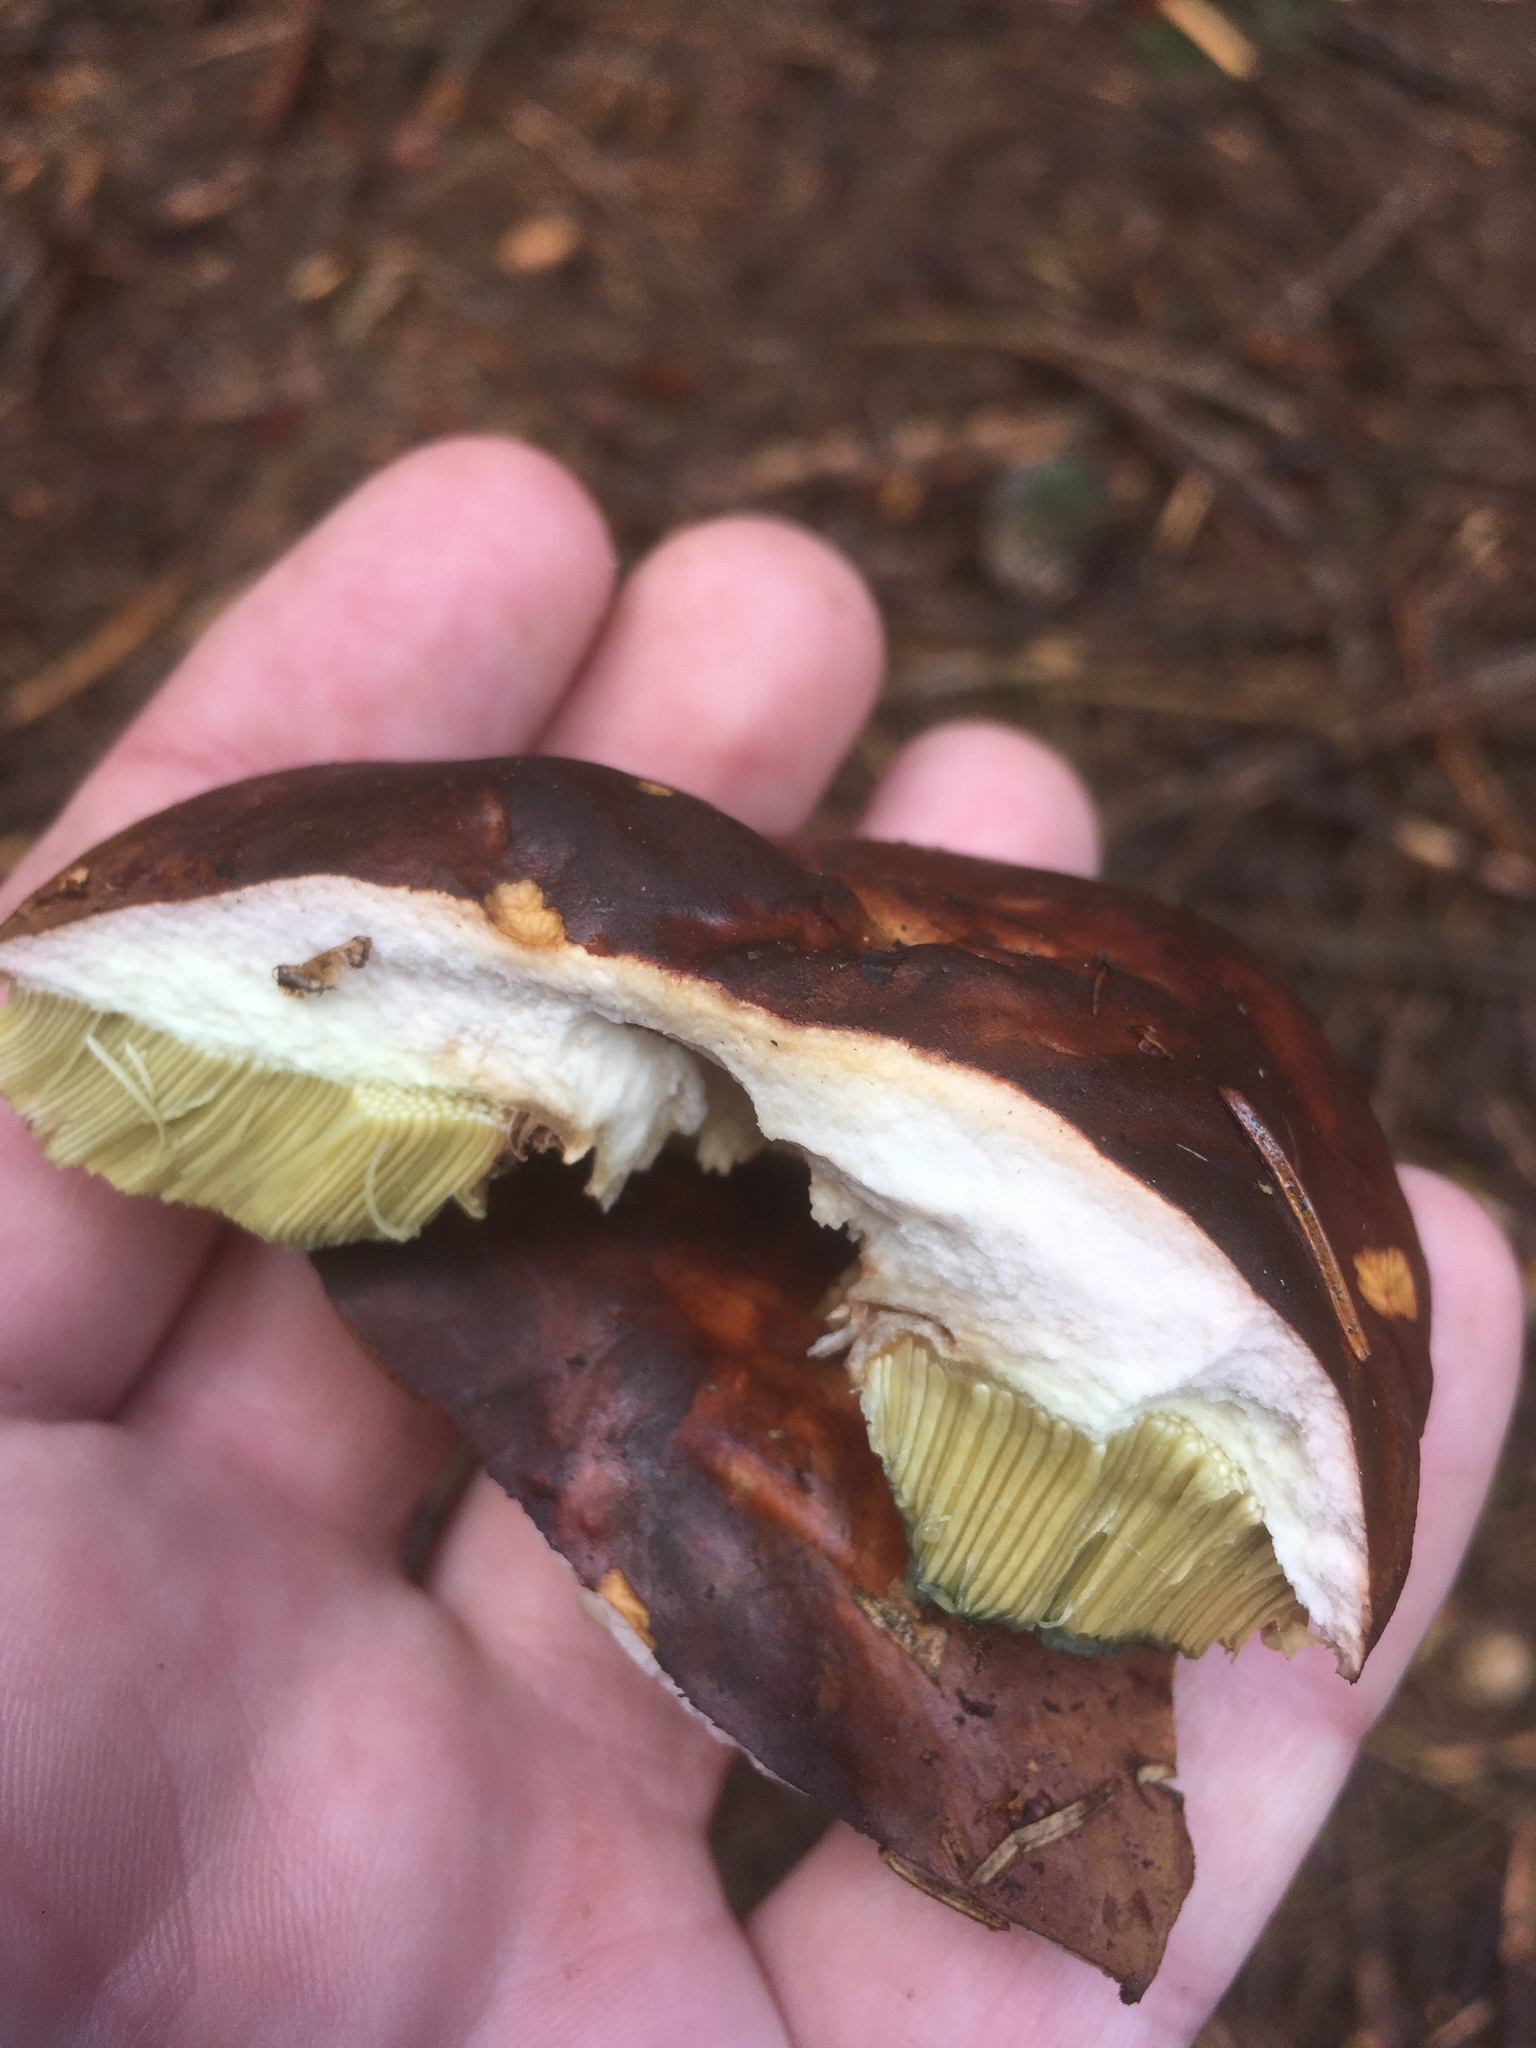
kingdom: Fungi
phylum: Basidiomycota
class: Agaricomycetes
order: Boletales
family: Boletaceae
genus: Imleria
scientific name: Imleria badia
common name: Bay bolete
